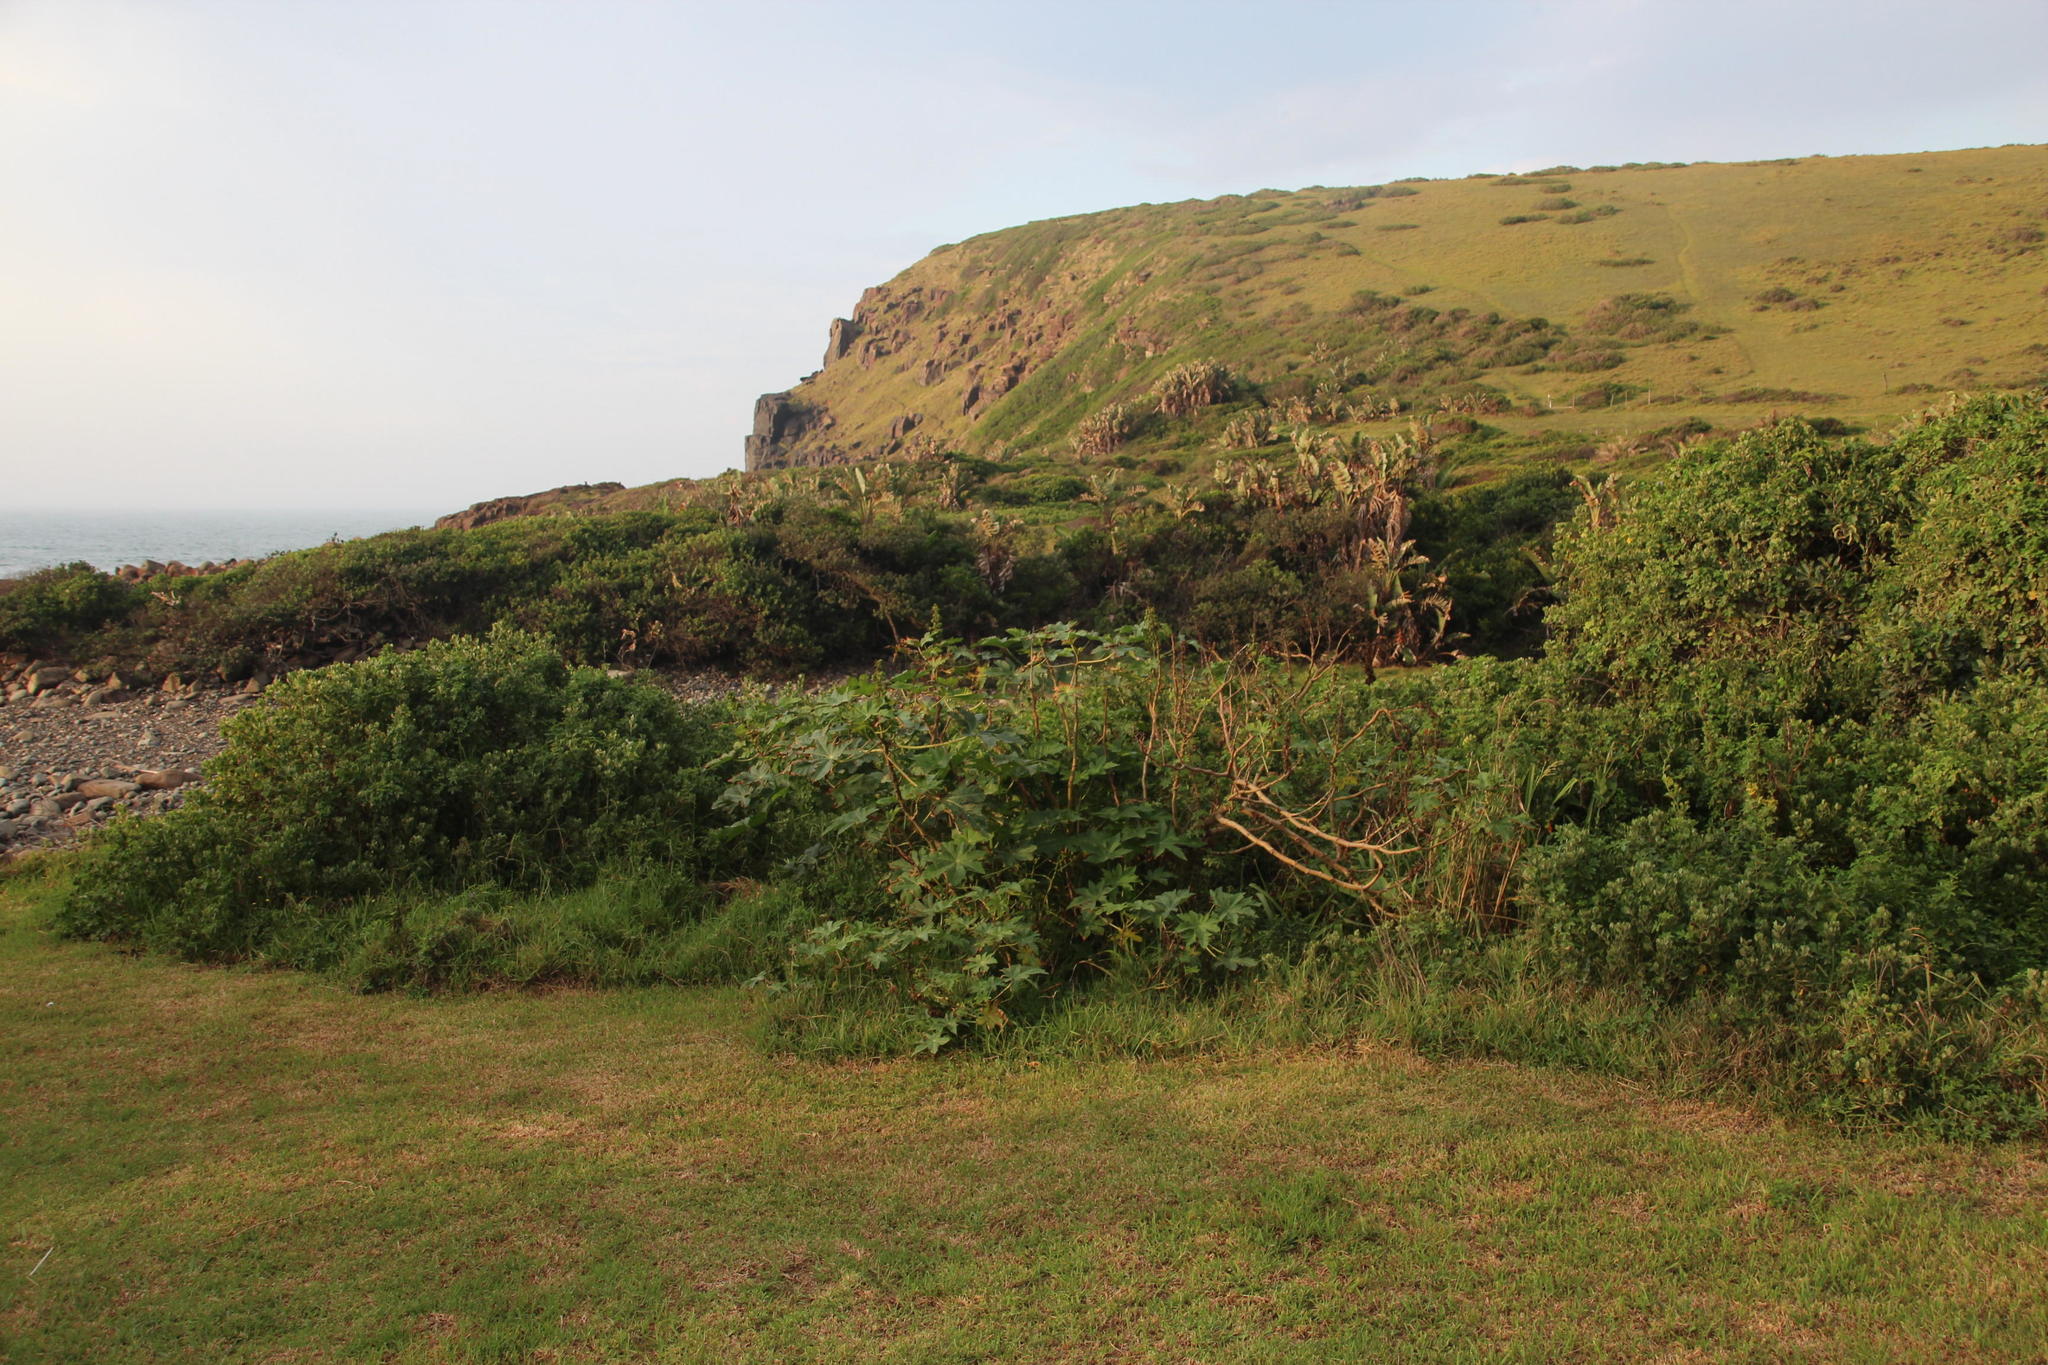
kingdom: Plantae
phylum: Tracheophyta
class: Magnoliopsida
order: Malpighiales
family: Euphorbiaceae
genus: Ricinus
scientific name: Ricinus communis
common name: Castor-oil-plant
